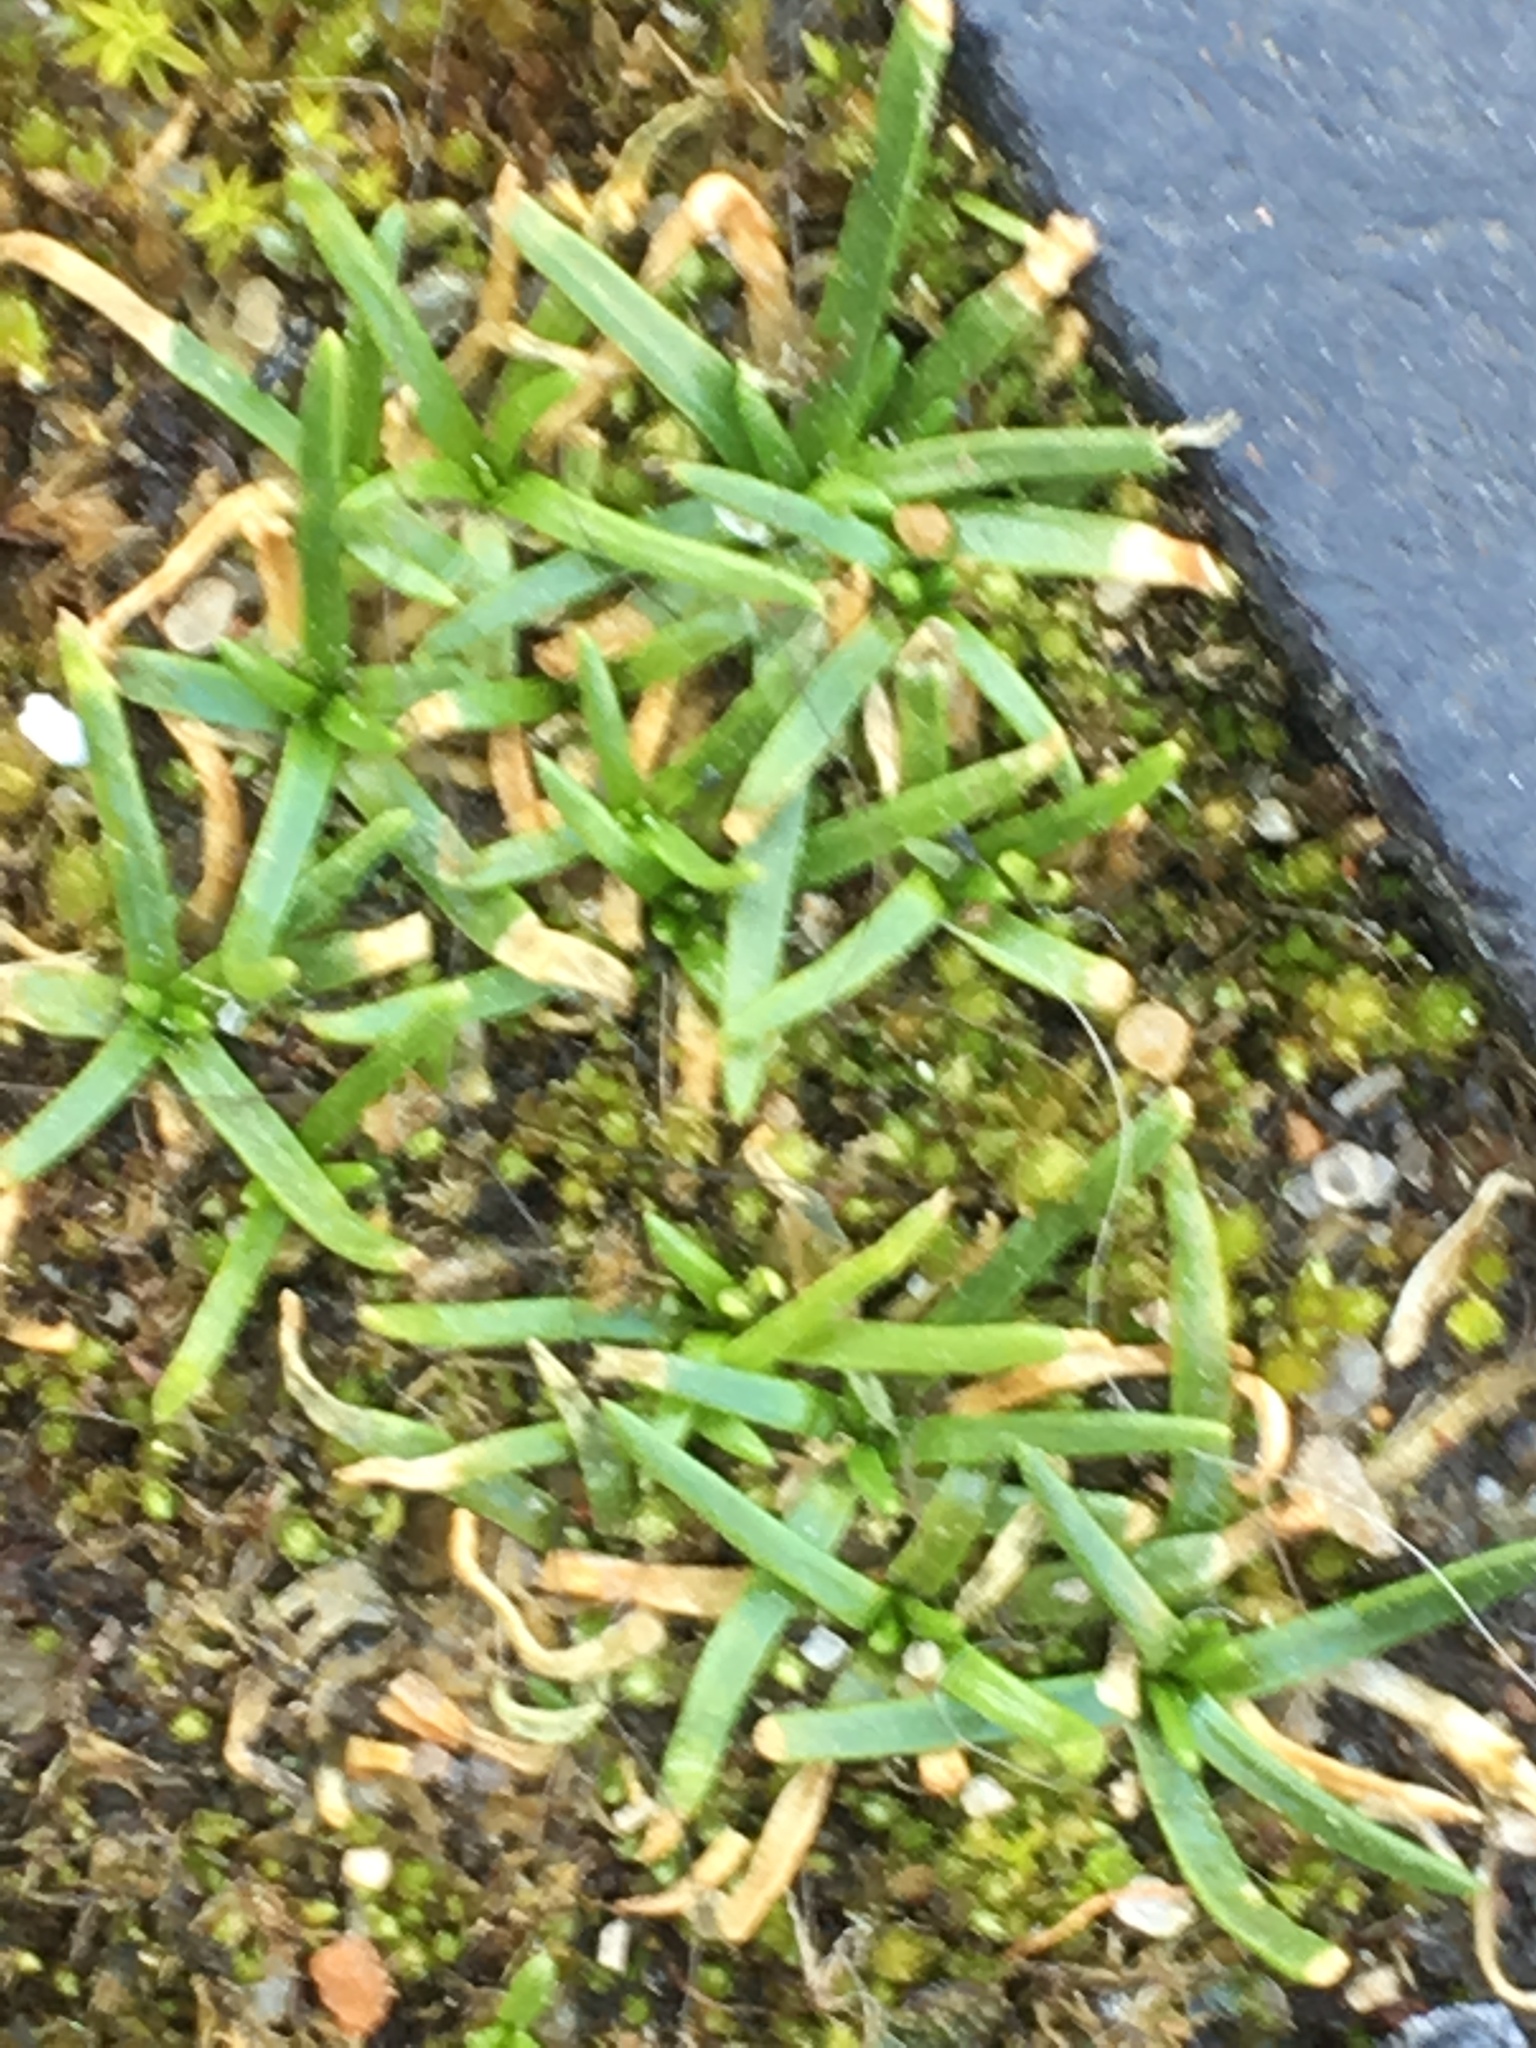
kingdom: Plantae
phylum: Tracheophyta
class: Magnoliopsida
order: Caryophyllales
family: Caryophyllaceae
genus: Sagina
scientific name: Sagina procumbens
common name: Procumbent pearlwort
